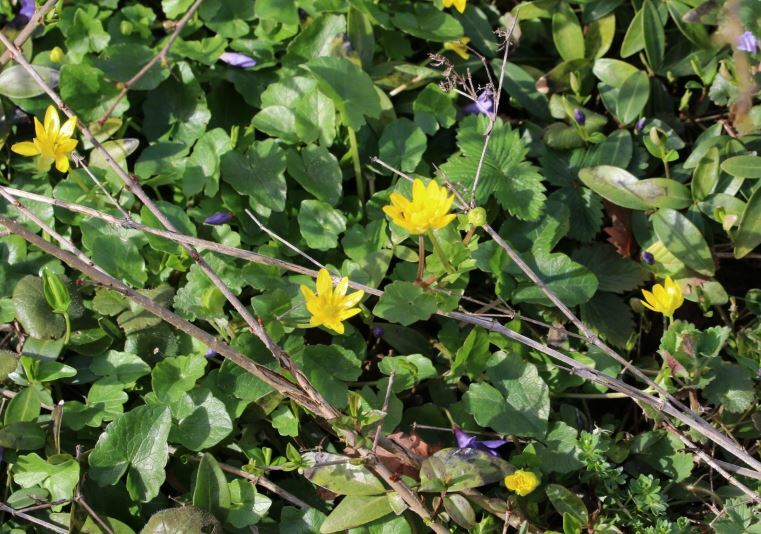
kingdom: Plantae
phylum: Tracheophyta
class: Magnoliopsida
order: Ranunculales
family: Ranunculaceae
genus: Ficaria
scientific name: Ficaria verna
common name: Lesser celandine
